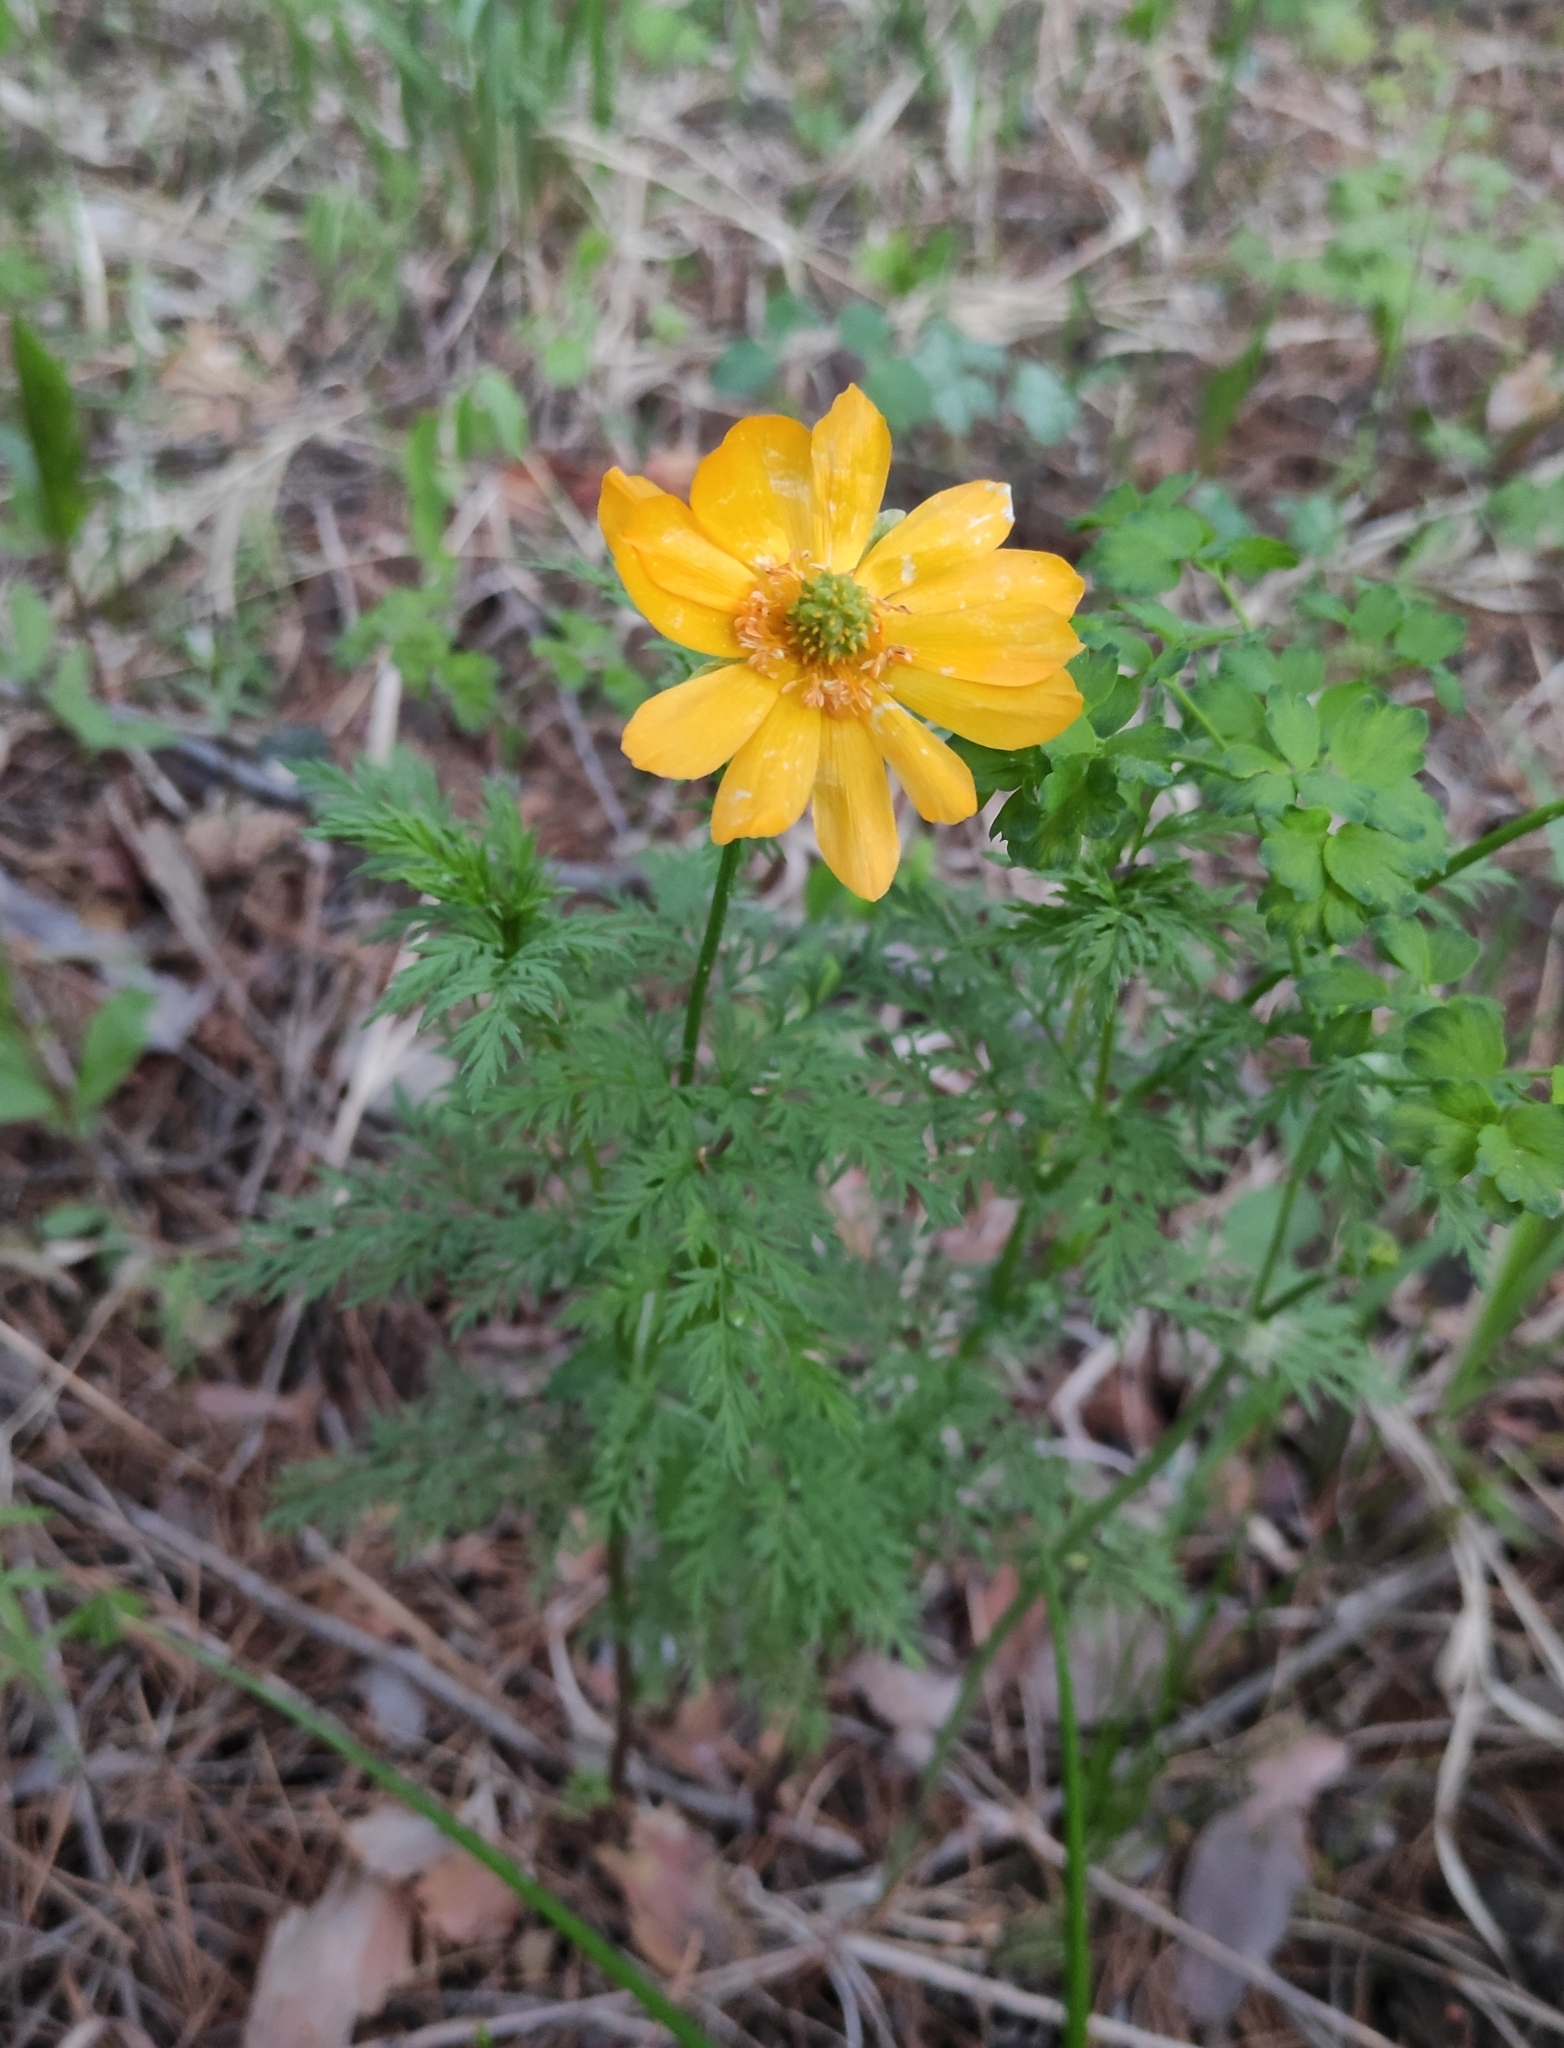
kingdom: Plantae
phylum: Tracheophyta
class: Magnoliopsida
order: Ranunculales
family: Ranunculaceae
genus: Adonis
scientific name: Adonis
